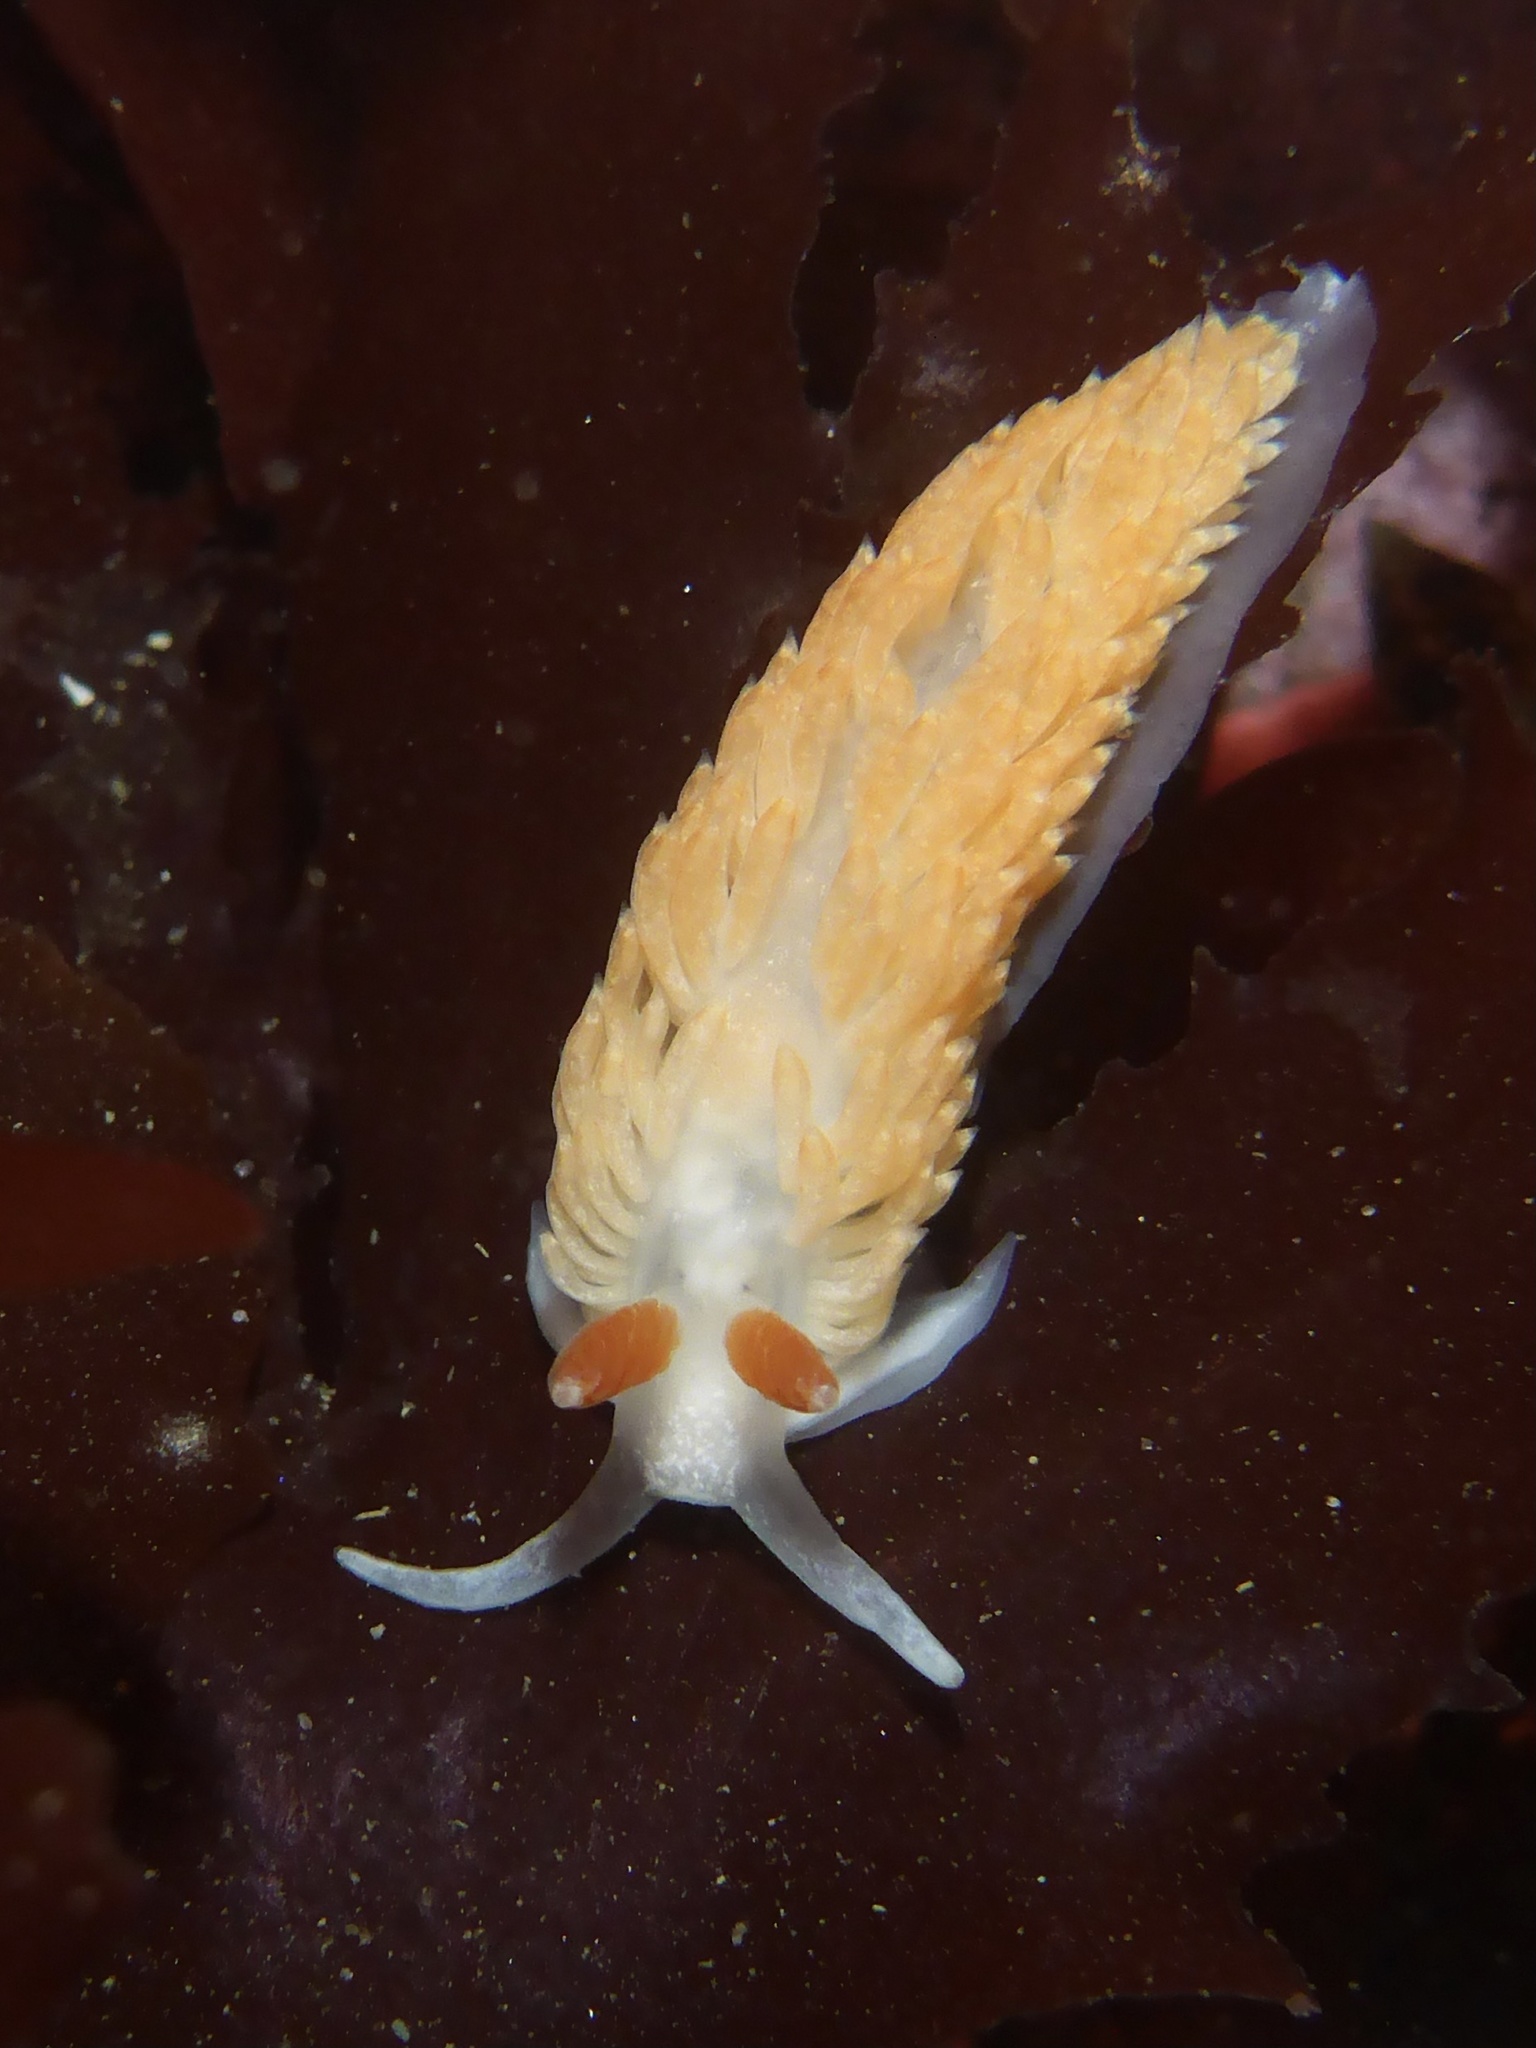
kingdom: Animalia
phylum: Mollusca
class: Gastropoda
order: Nudibranchia
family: Aeolidiidae
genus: Anteaeolidiella
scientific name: Anteaeolidiella oliviae
